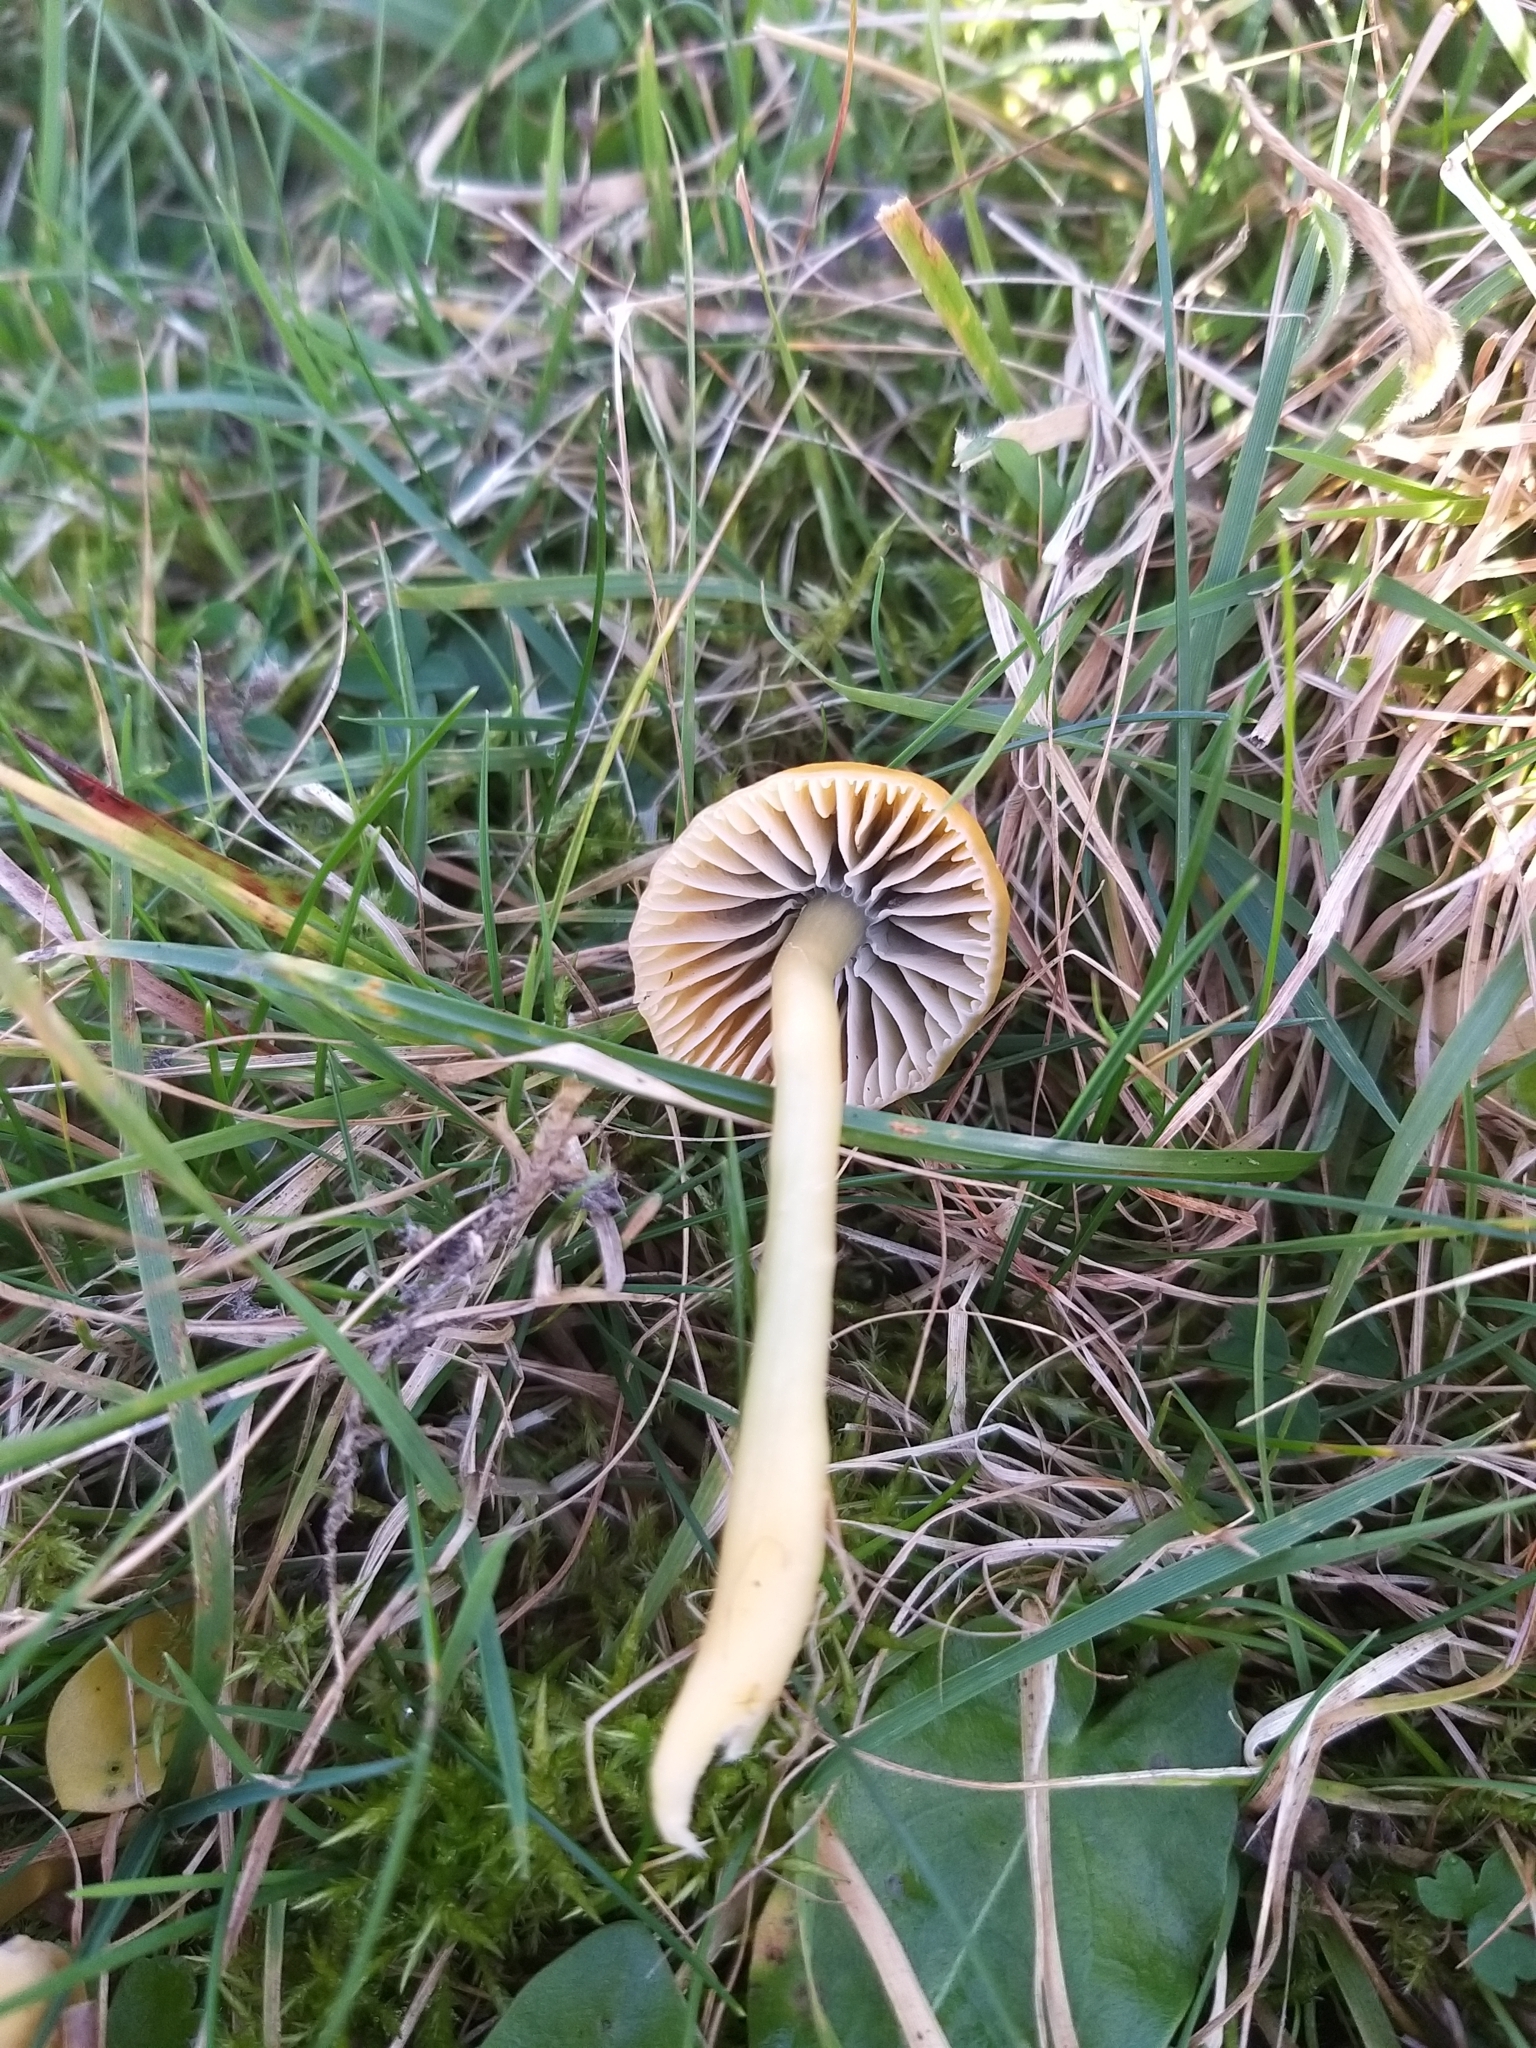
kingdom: Fungi
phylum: Basidiomycota
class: Agaricomycetes
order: Agaricales
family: Hygrophoraceae
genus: Gliophorus
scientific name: Gliophorus psittacinus
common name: Parrot wax-cap
